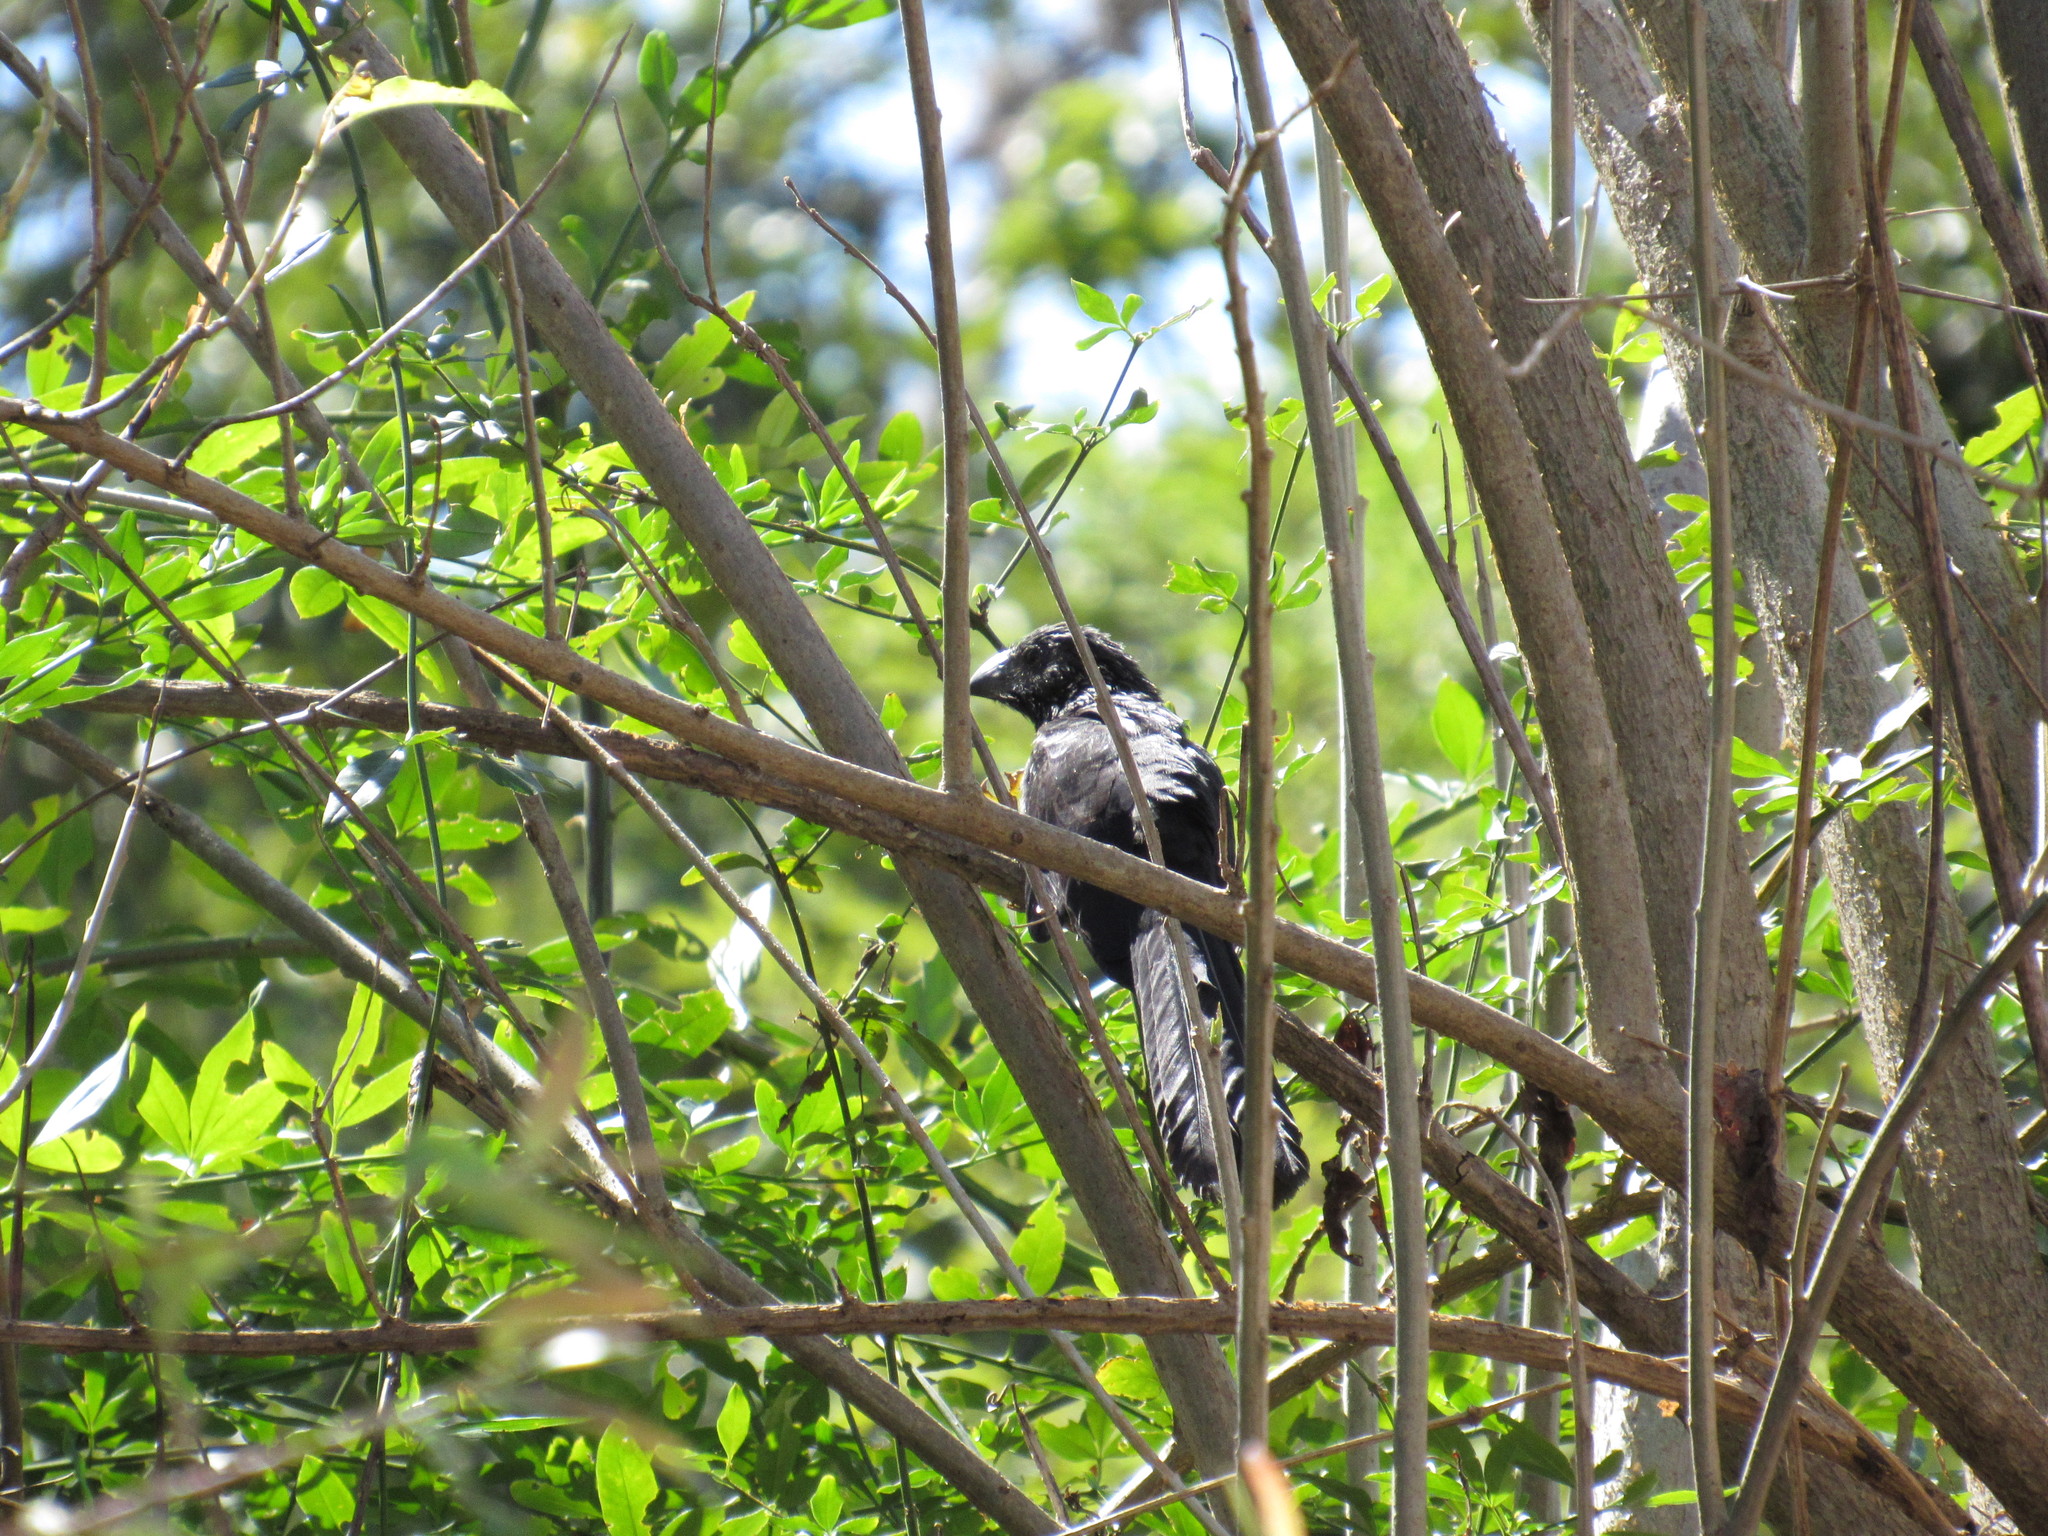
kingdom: Animalia
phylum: Chordata
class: Aves
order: Cuculiformes
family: Cuculidae
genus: Crotophaga
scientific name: Crotophaga sulcirostris
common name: Groove-billed ani
